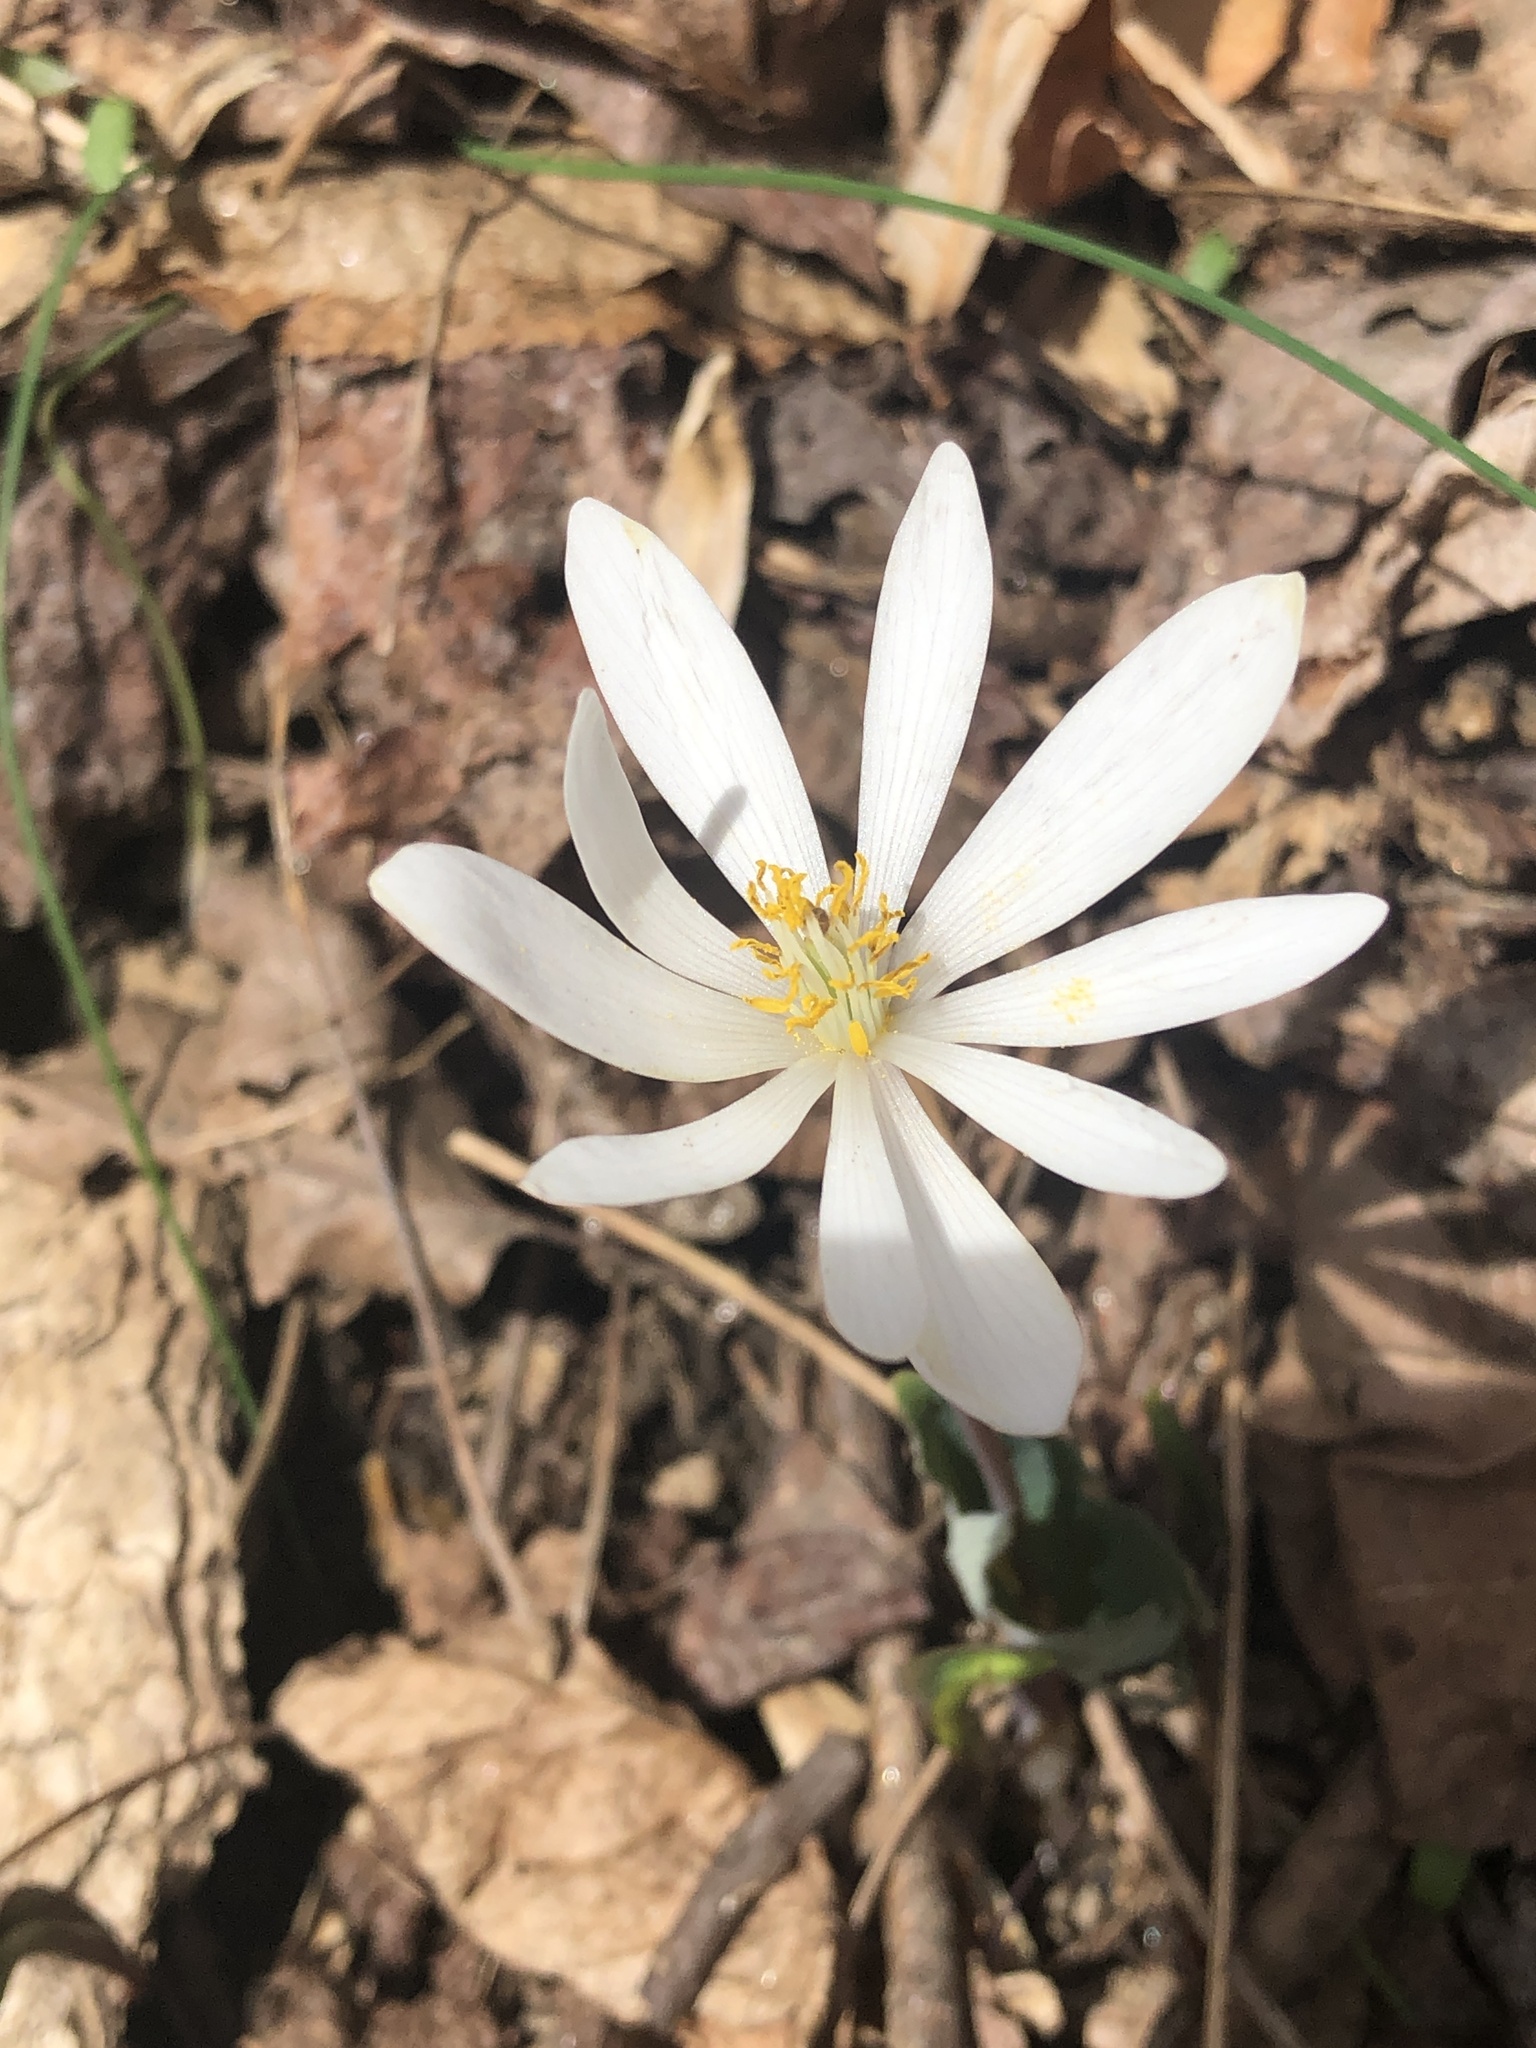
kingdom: Plantae
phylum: Tracheophyta
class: Magnoliopsida
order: Ranunculales
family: Papaveraceae
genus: Sanguinaria
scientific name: Sanguinaria canadensis
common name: Bloodroot
